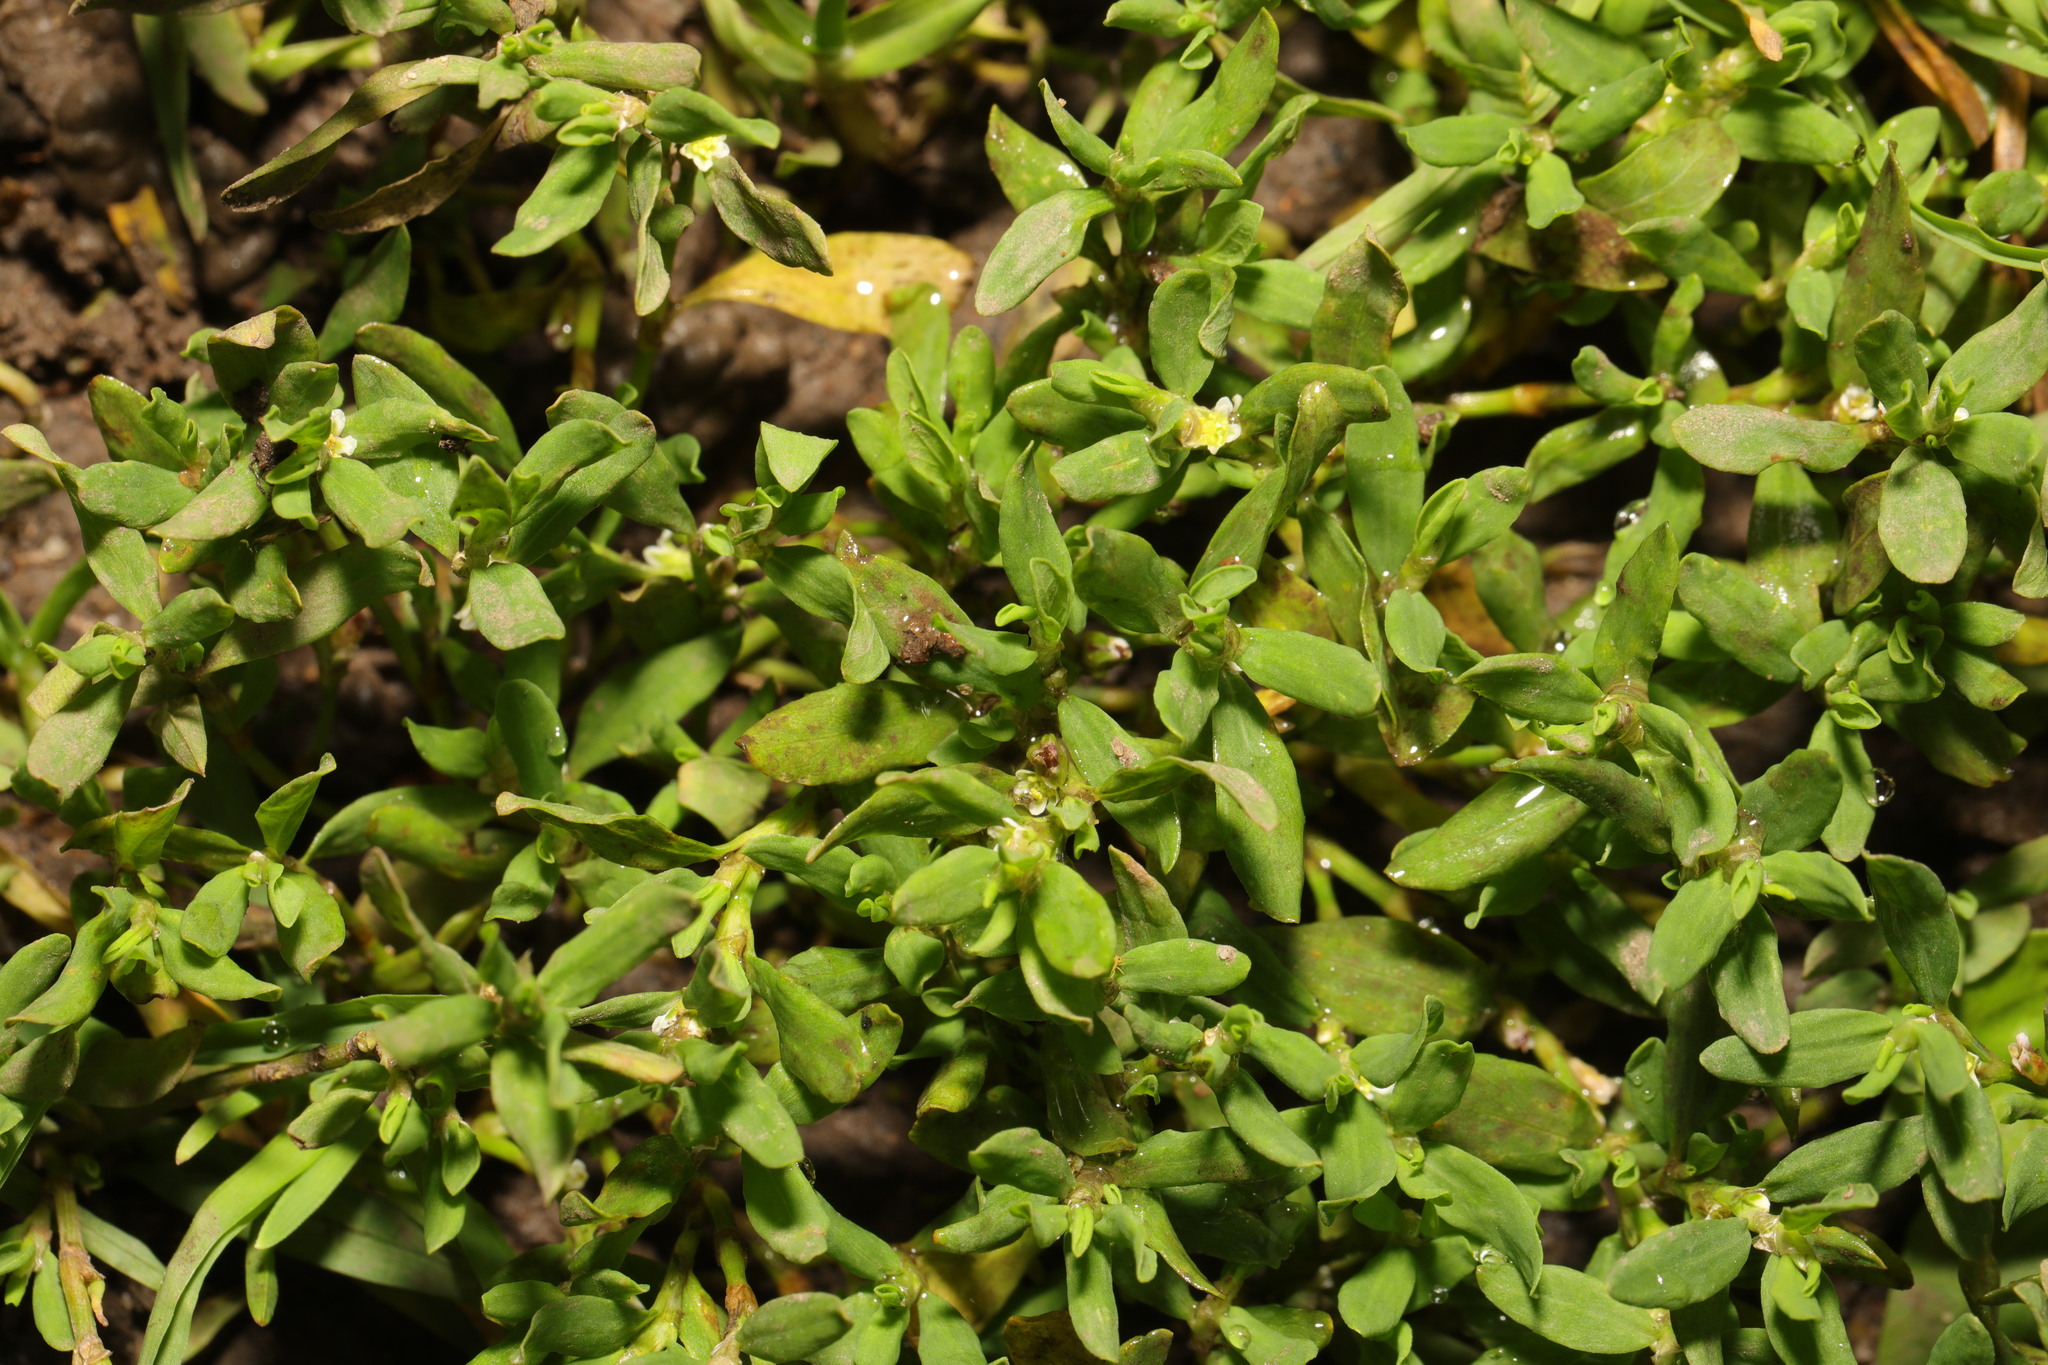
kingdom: Plantae
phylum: Tracheophyta
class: Magnoliopsida
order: Caryophyllales
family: Polygonaceae
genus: Polygonum
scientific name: Polygonum aviculare
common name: Prostrate knotweed
